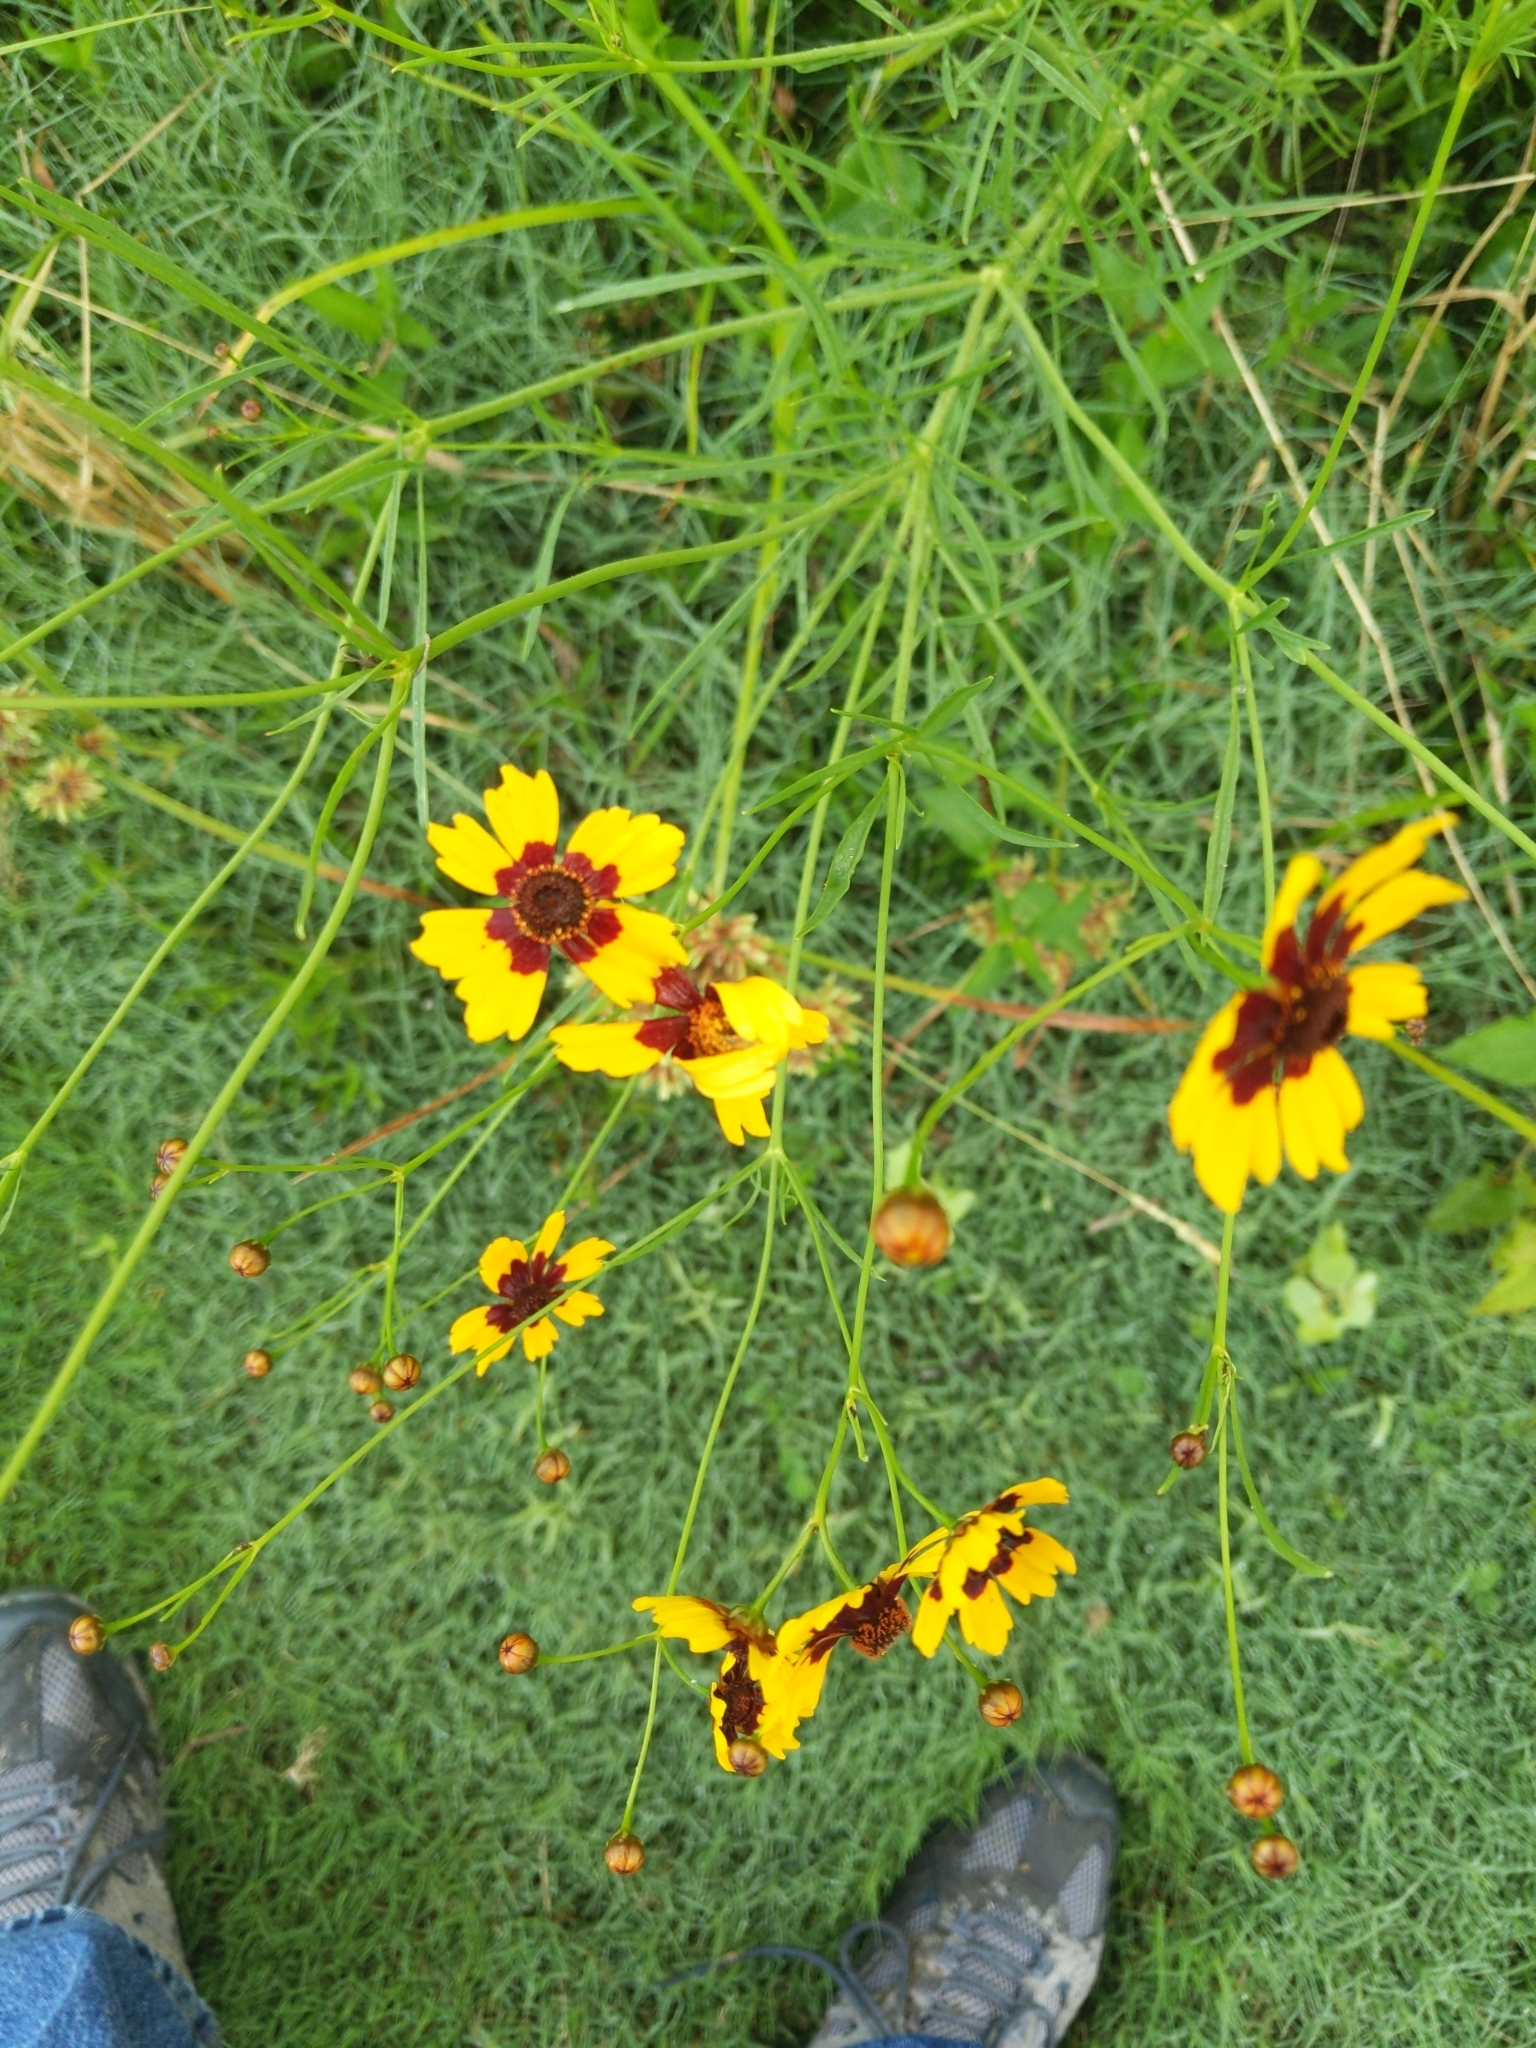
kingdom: Plantae
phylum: Tracheophyta
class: Magnoliopsida
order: Asterales
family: Asteraceae
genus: Coreopsis
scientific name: Coreopsis tinctoria
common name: Garden tickseed
